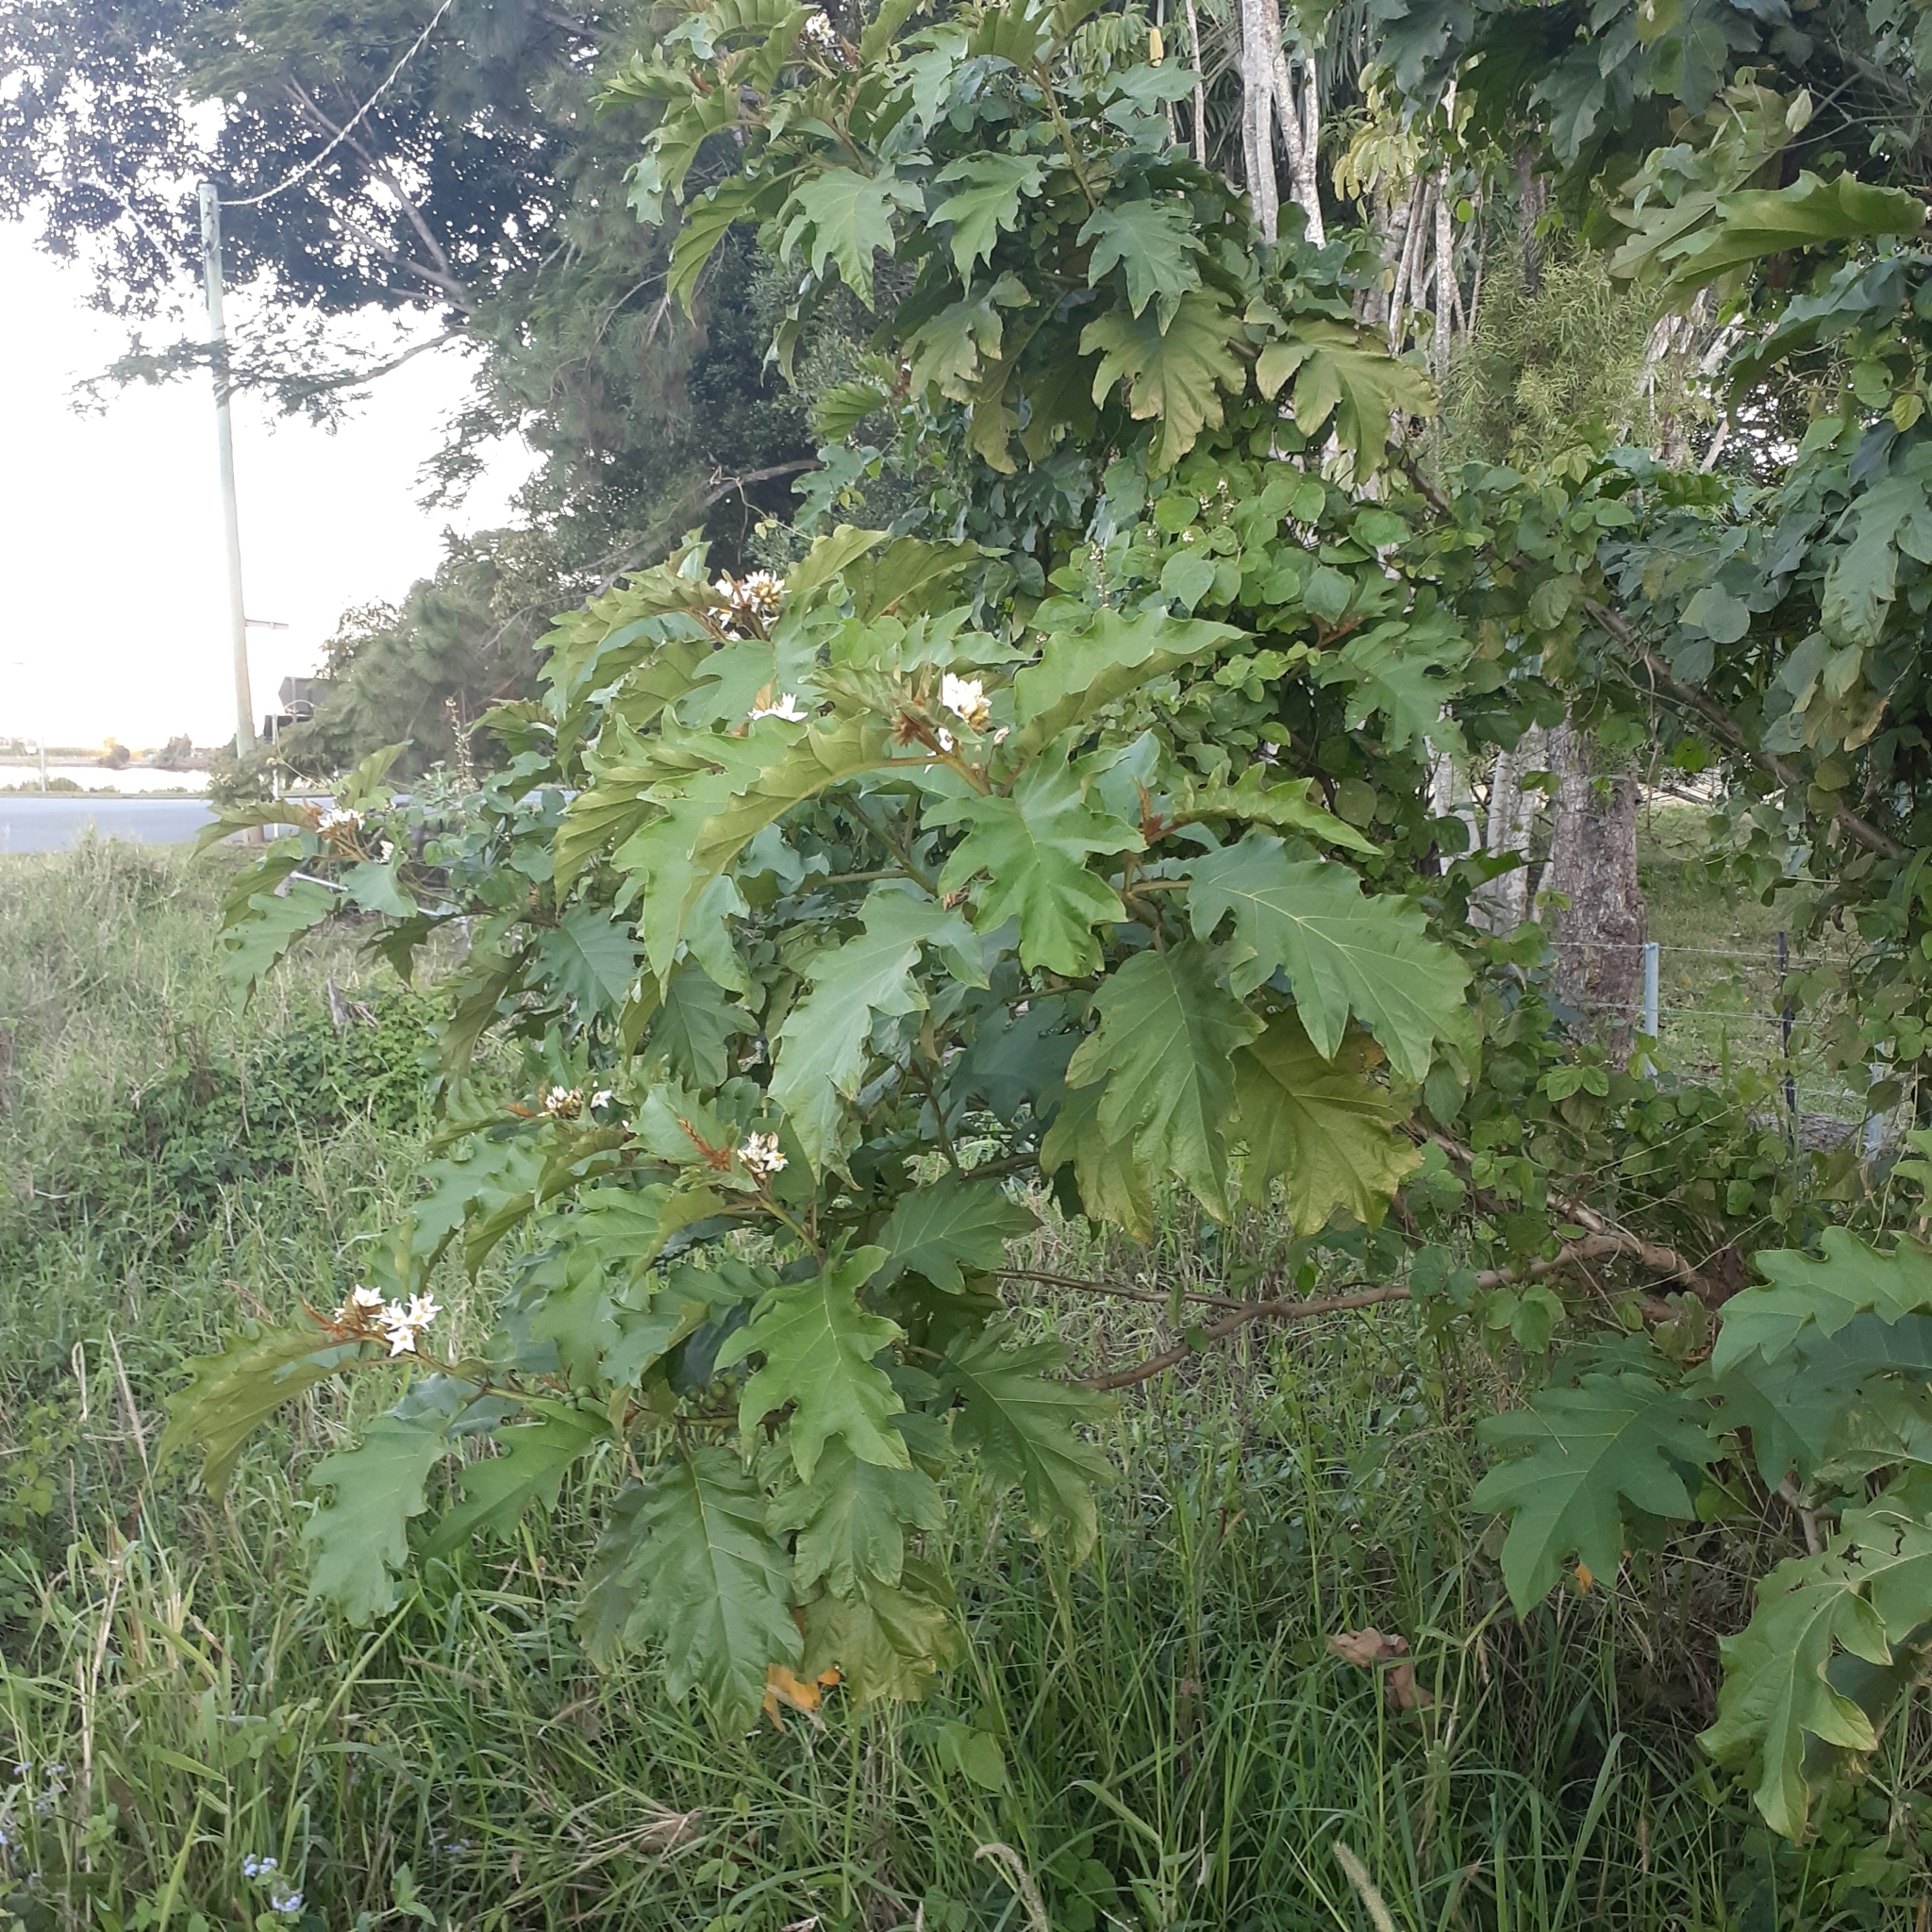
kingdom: Plantae
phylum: Tracheophyta
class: Magnoliopsida
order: Solanales
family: Solanaceae
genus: Solanum
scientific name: Solanum chrysotrichum
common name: Nightshade
